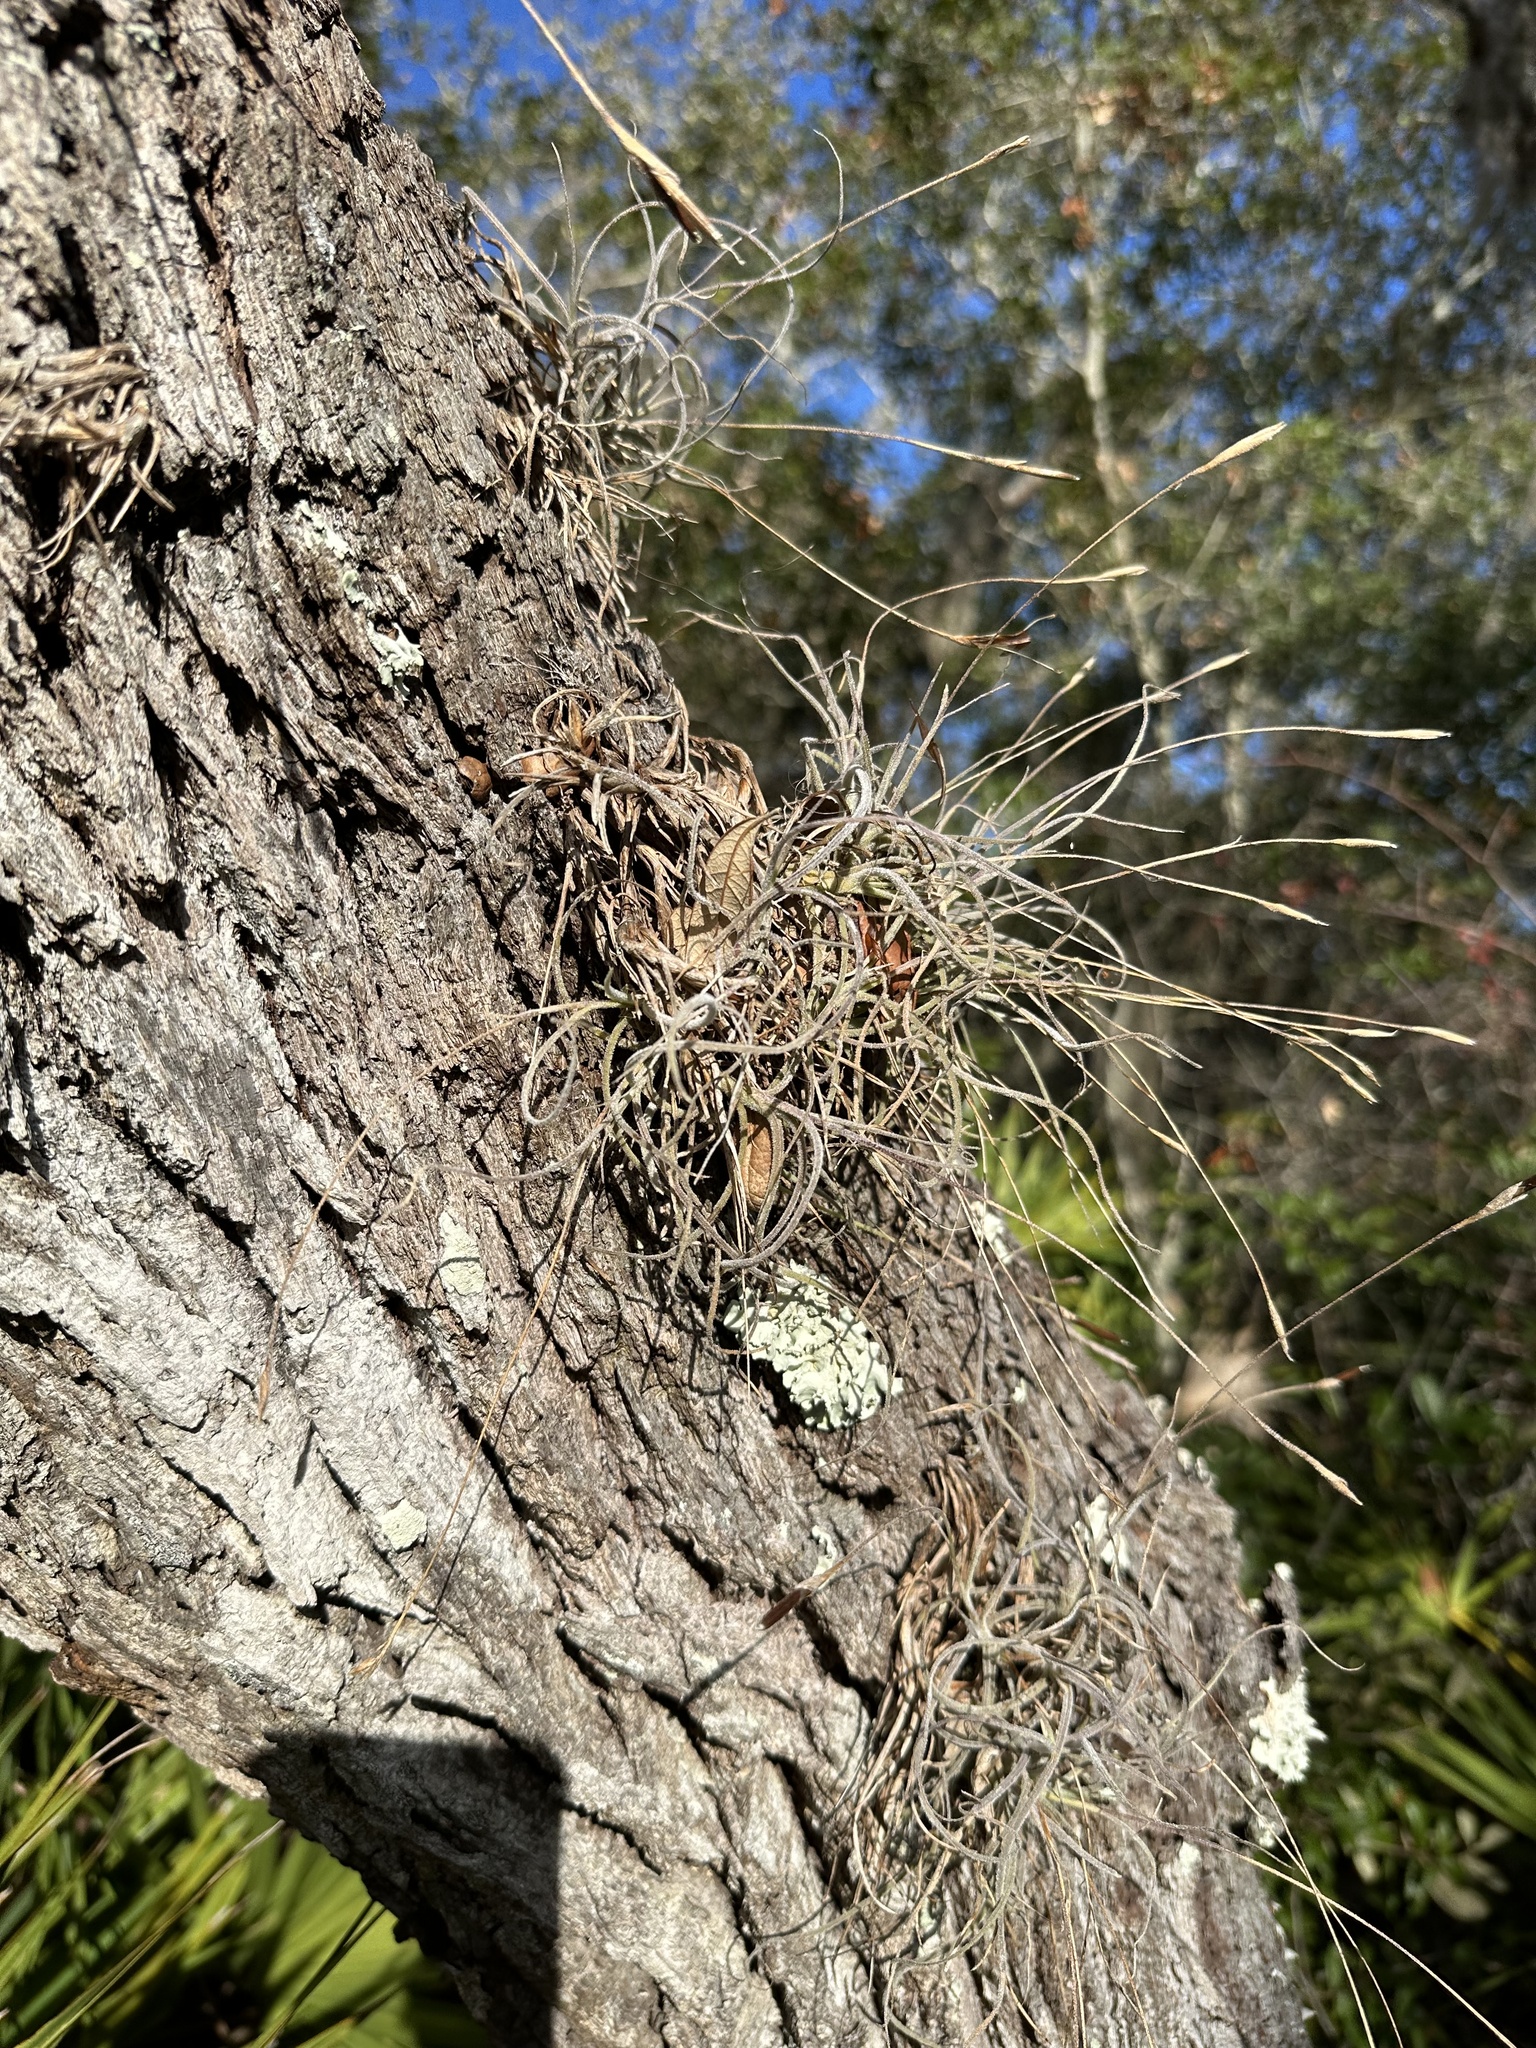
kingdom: Plantae
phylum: Tracheophyta
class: Liliopsida
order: Poales
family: Bromeliaceae
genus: Tillandsia
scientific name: Tillandsia recurvata
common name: Small ballmoss
